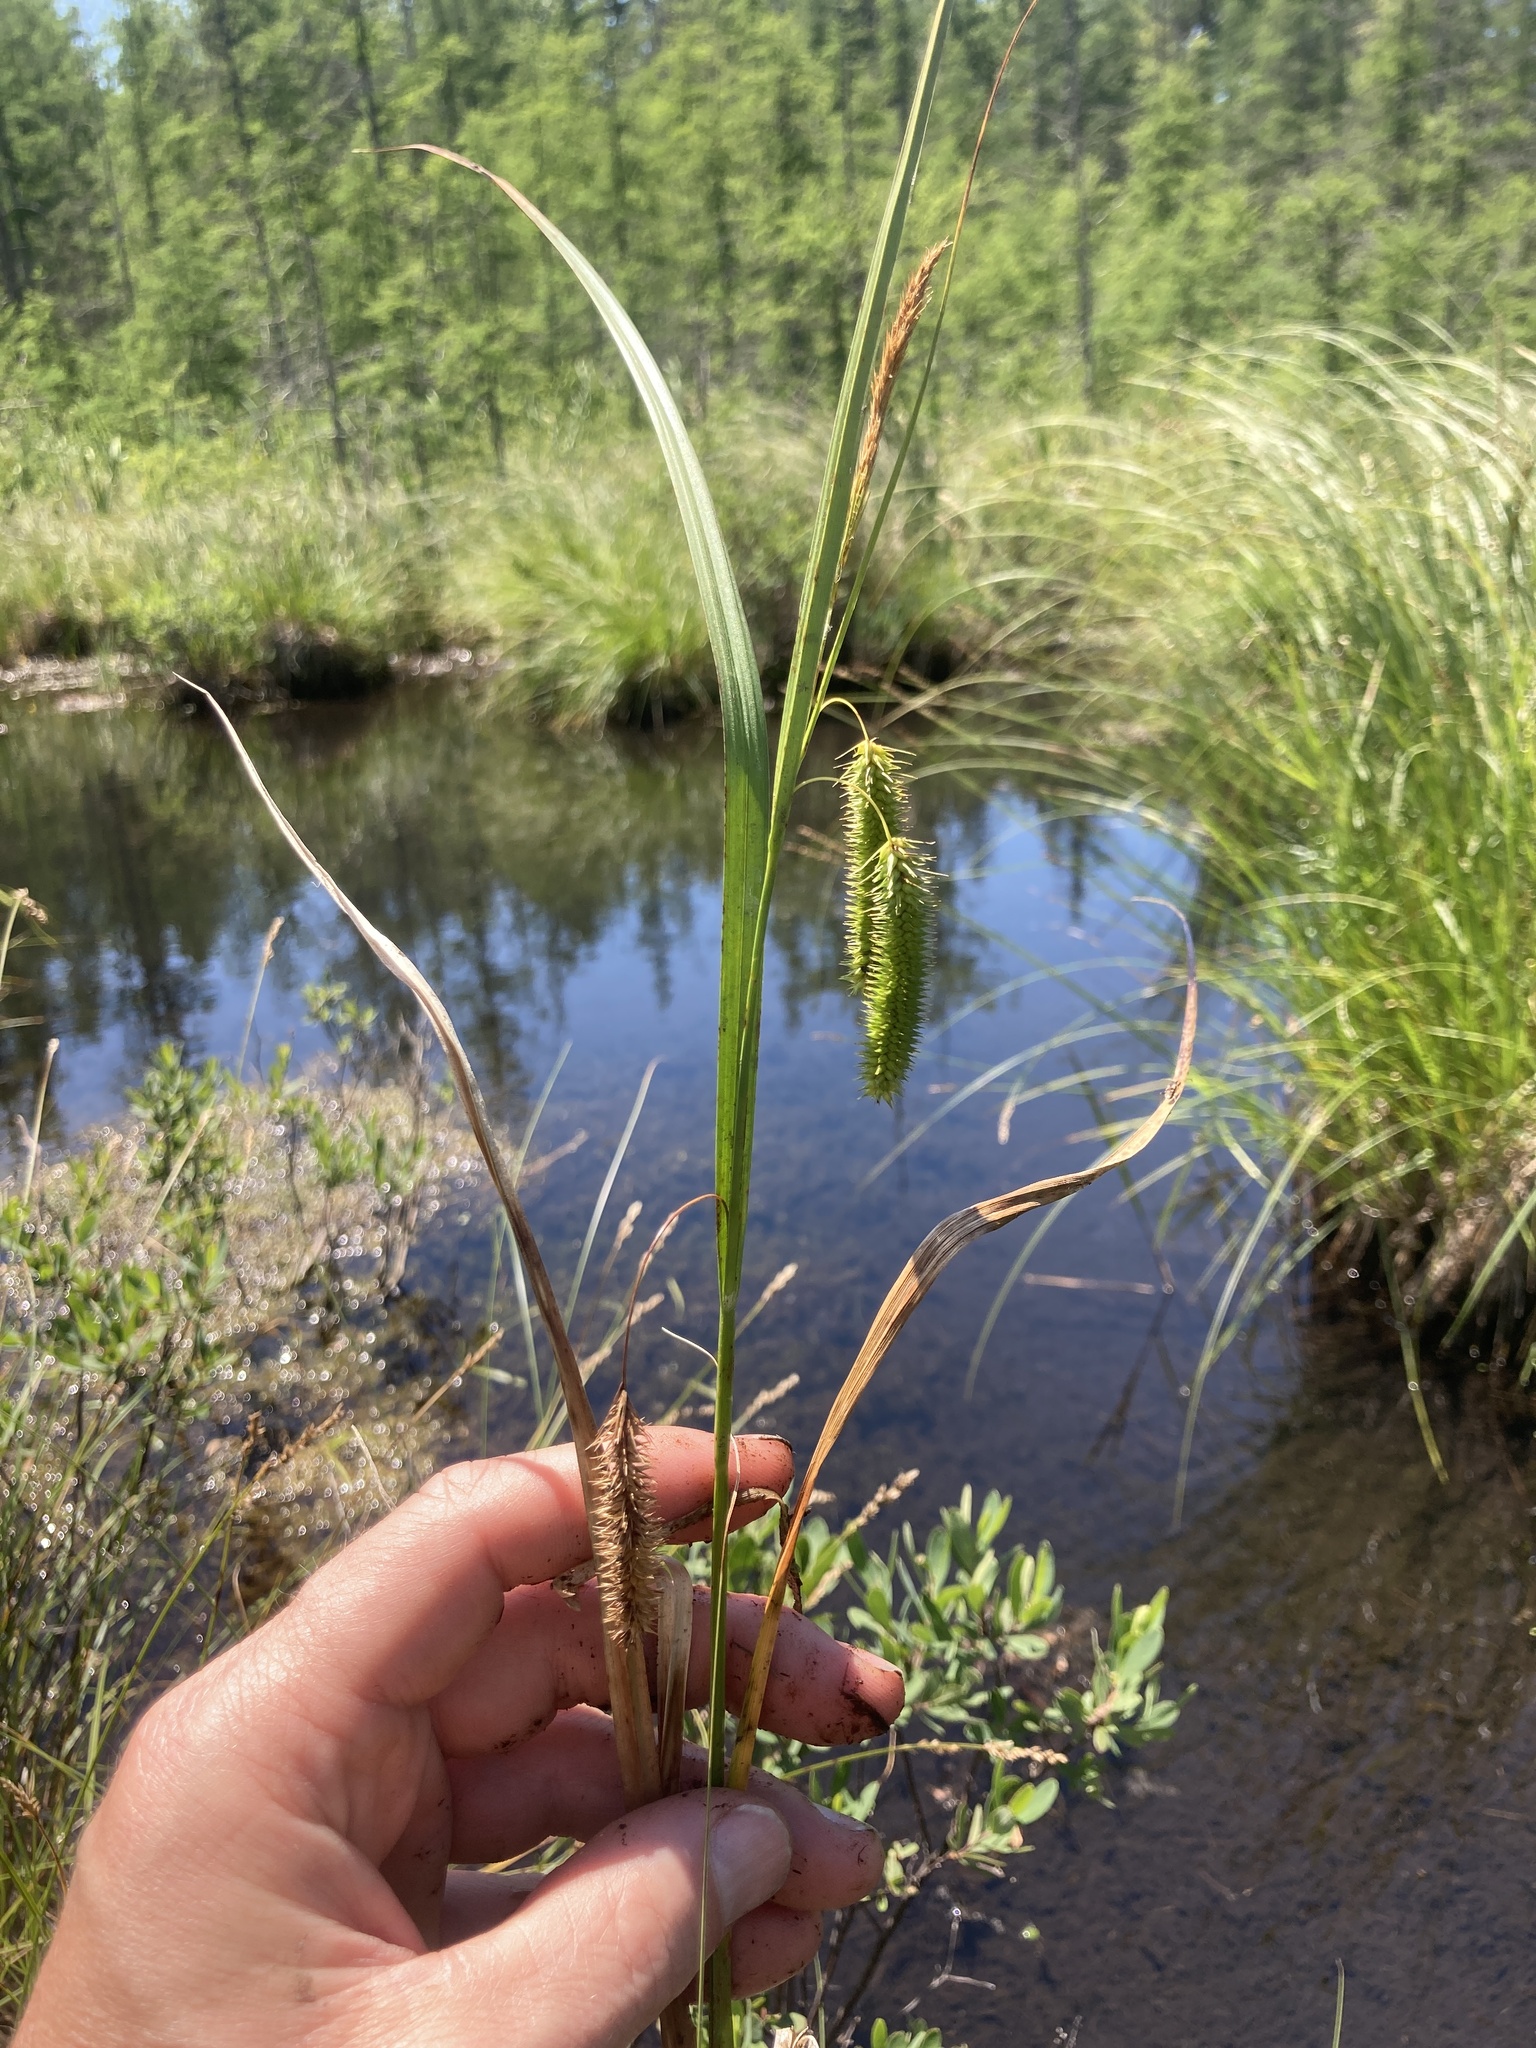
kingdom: Plantae
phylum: Tracheophyta
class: Liliopsida
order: Poales
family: Cyperaceae
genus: Carex
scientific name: Carex pseudocyperus
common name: Cyperus sedge
